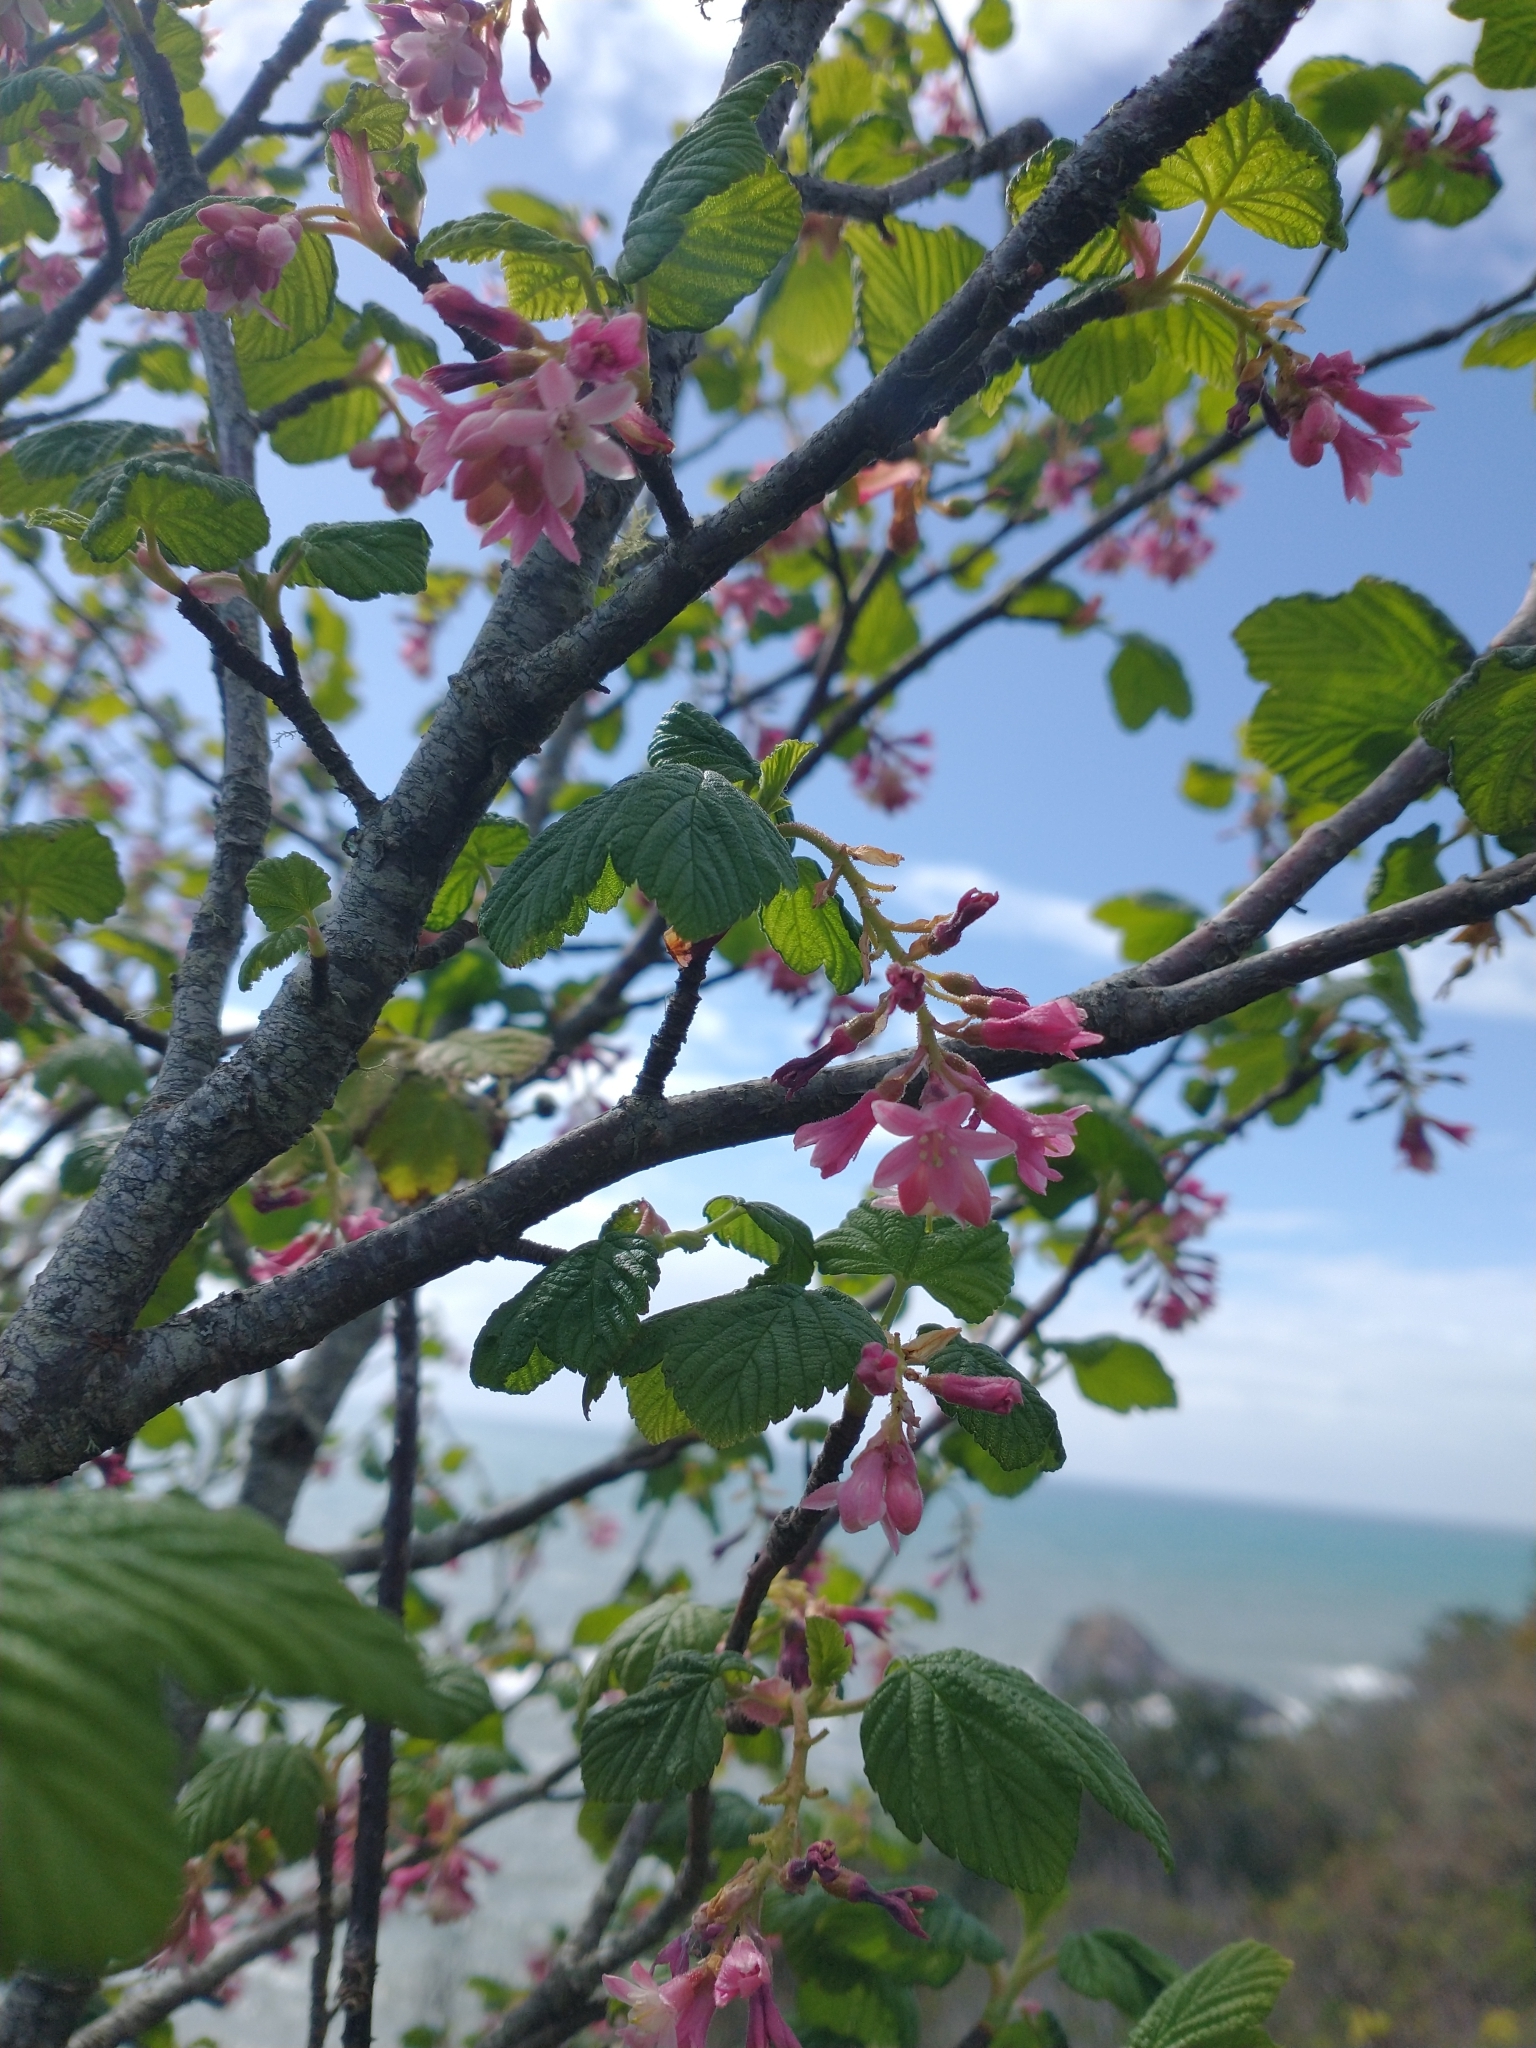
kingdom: Plantae
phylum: Tracheophyta
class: Magnoliopsida
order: Saxifragales
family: Grossulariaceae
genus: Ribes
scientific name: Ribes sanguineum
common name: Flowering currant
